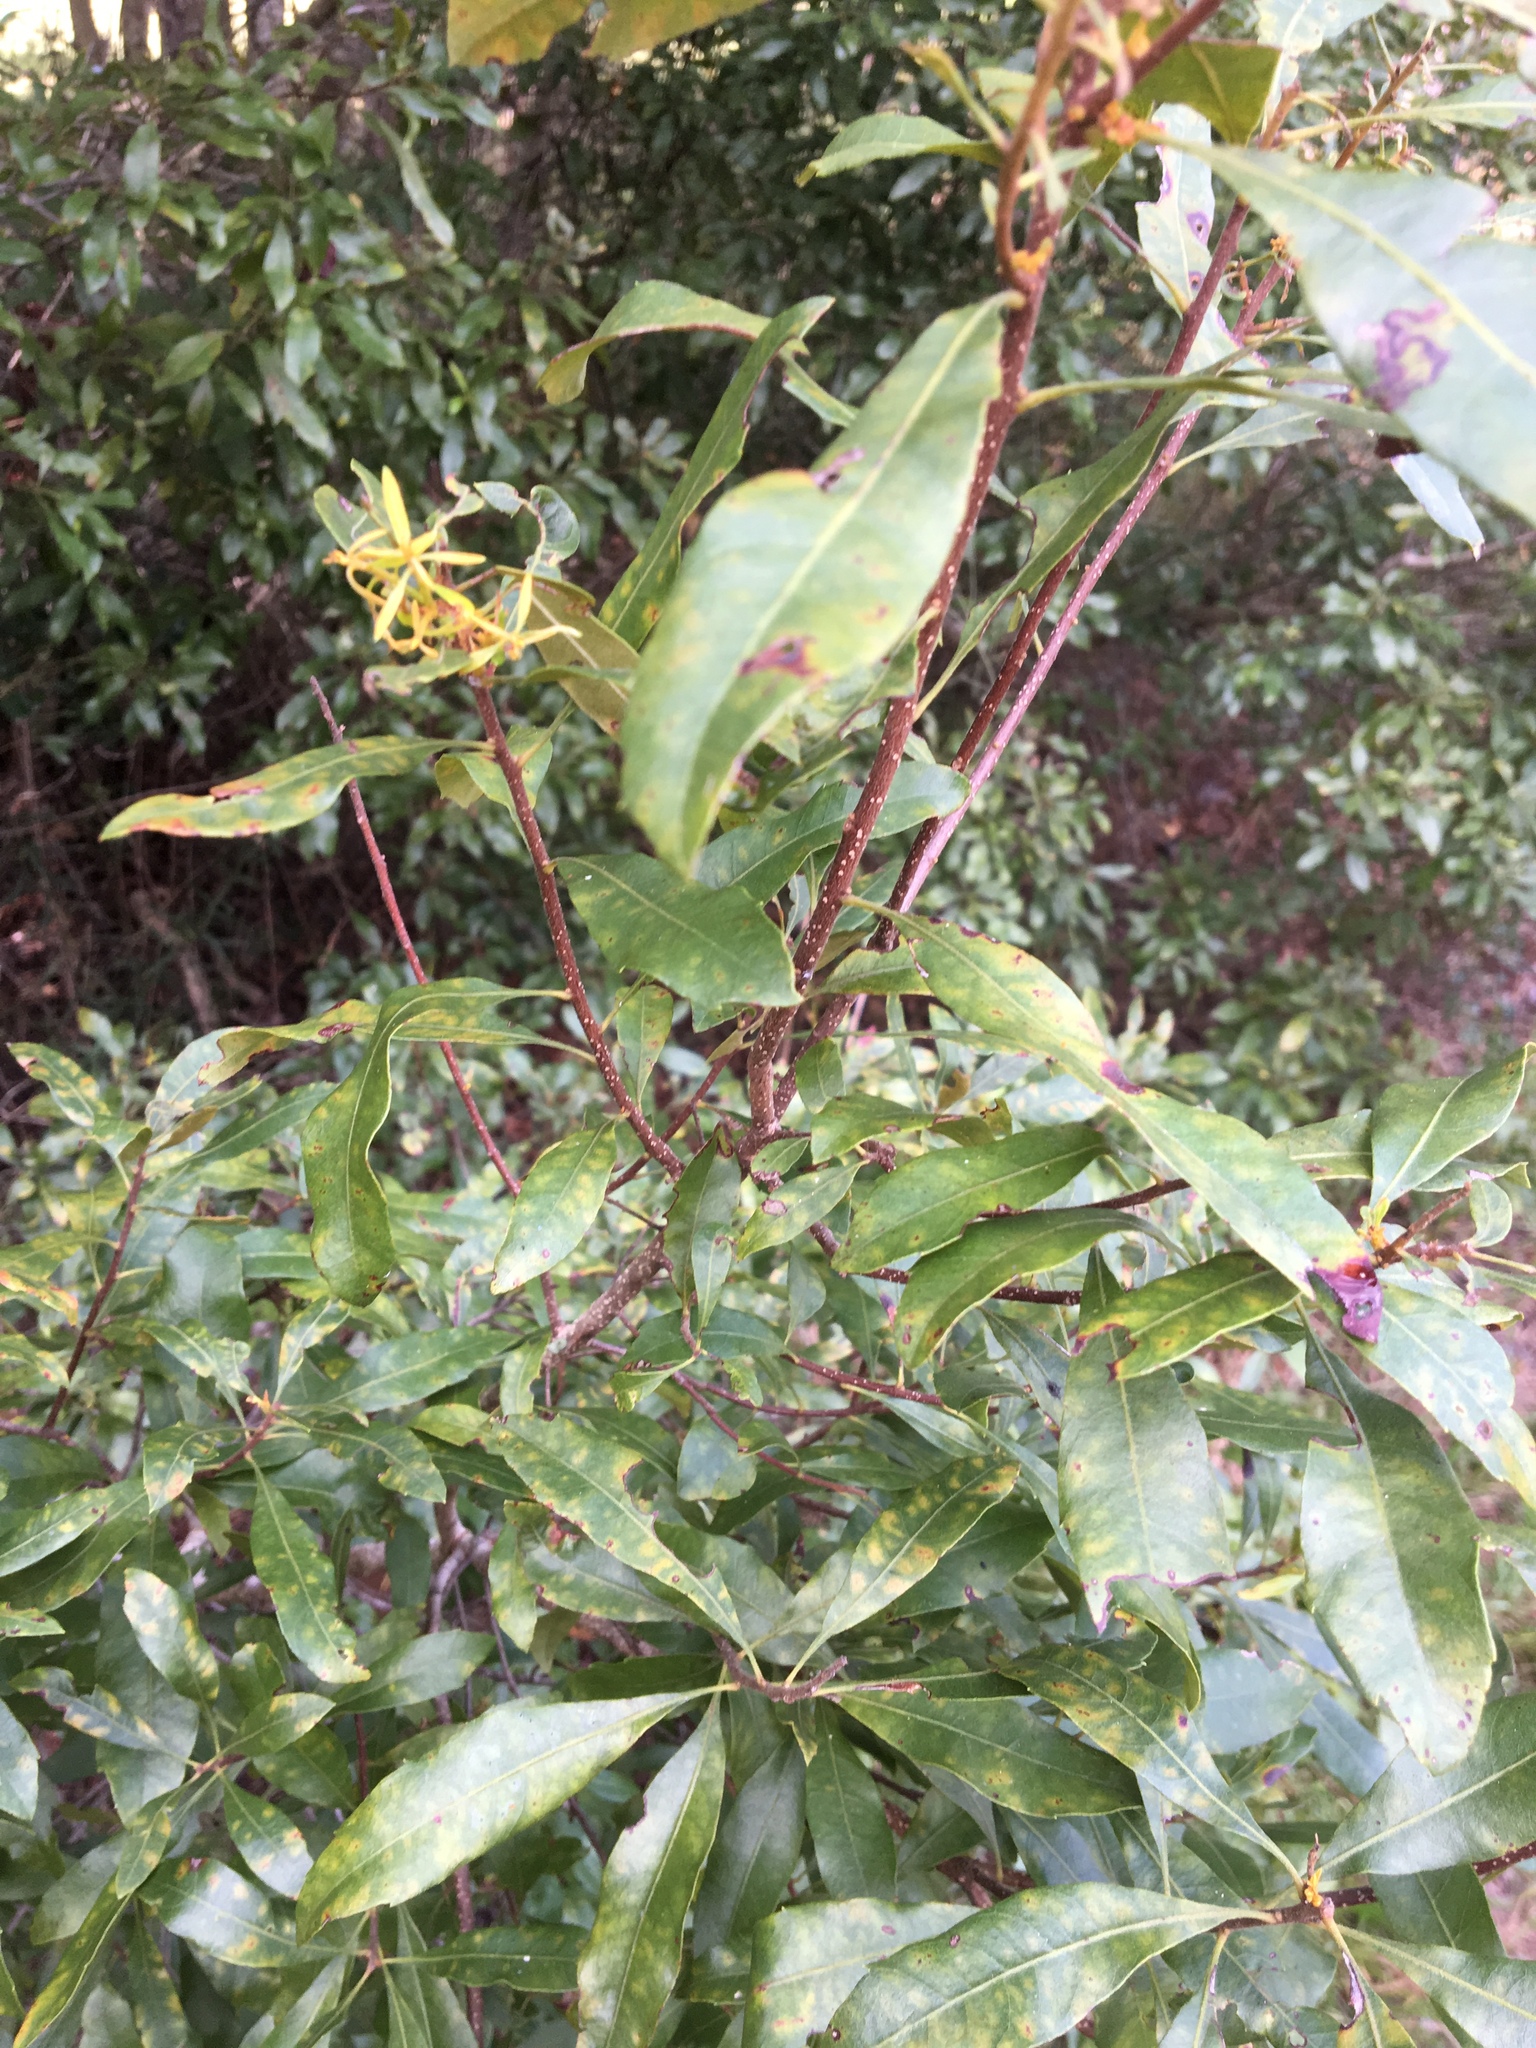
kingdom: Plantae
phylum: Tracheophyta
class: Magnoliopsida
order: Fagales
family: Myricaceae
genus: Morella
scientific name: Morella cerifera
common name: Wax myrtle
